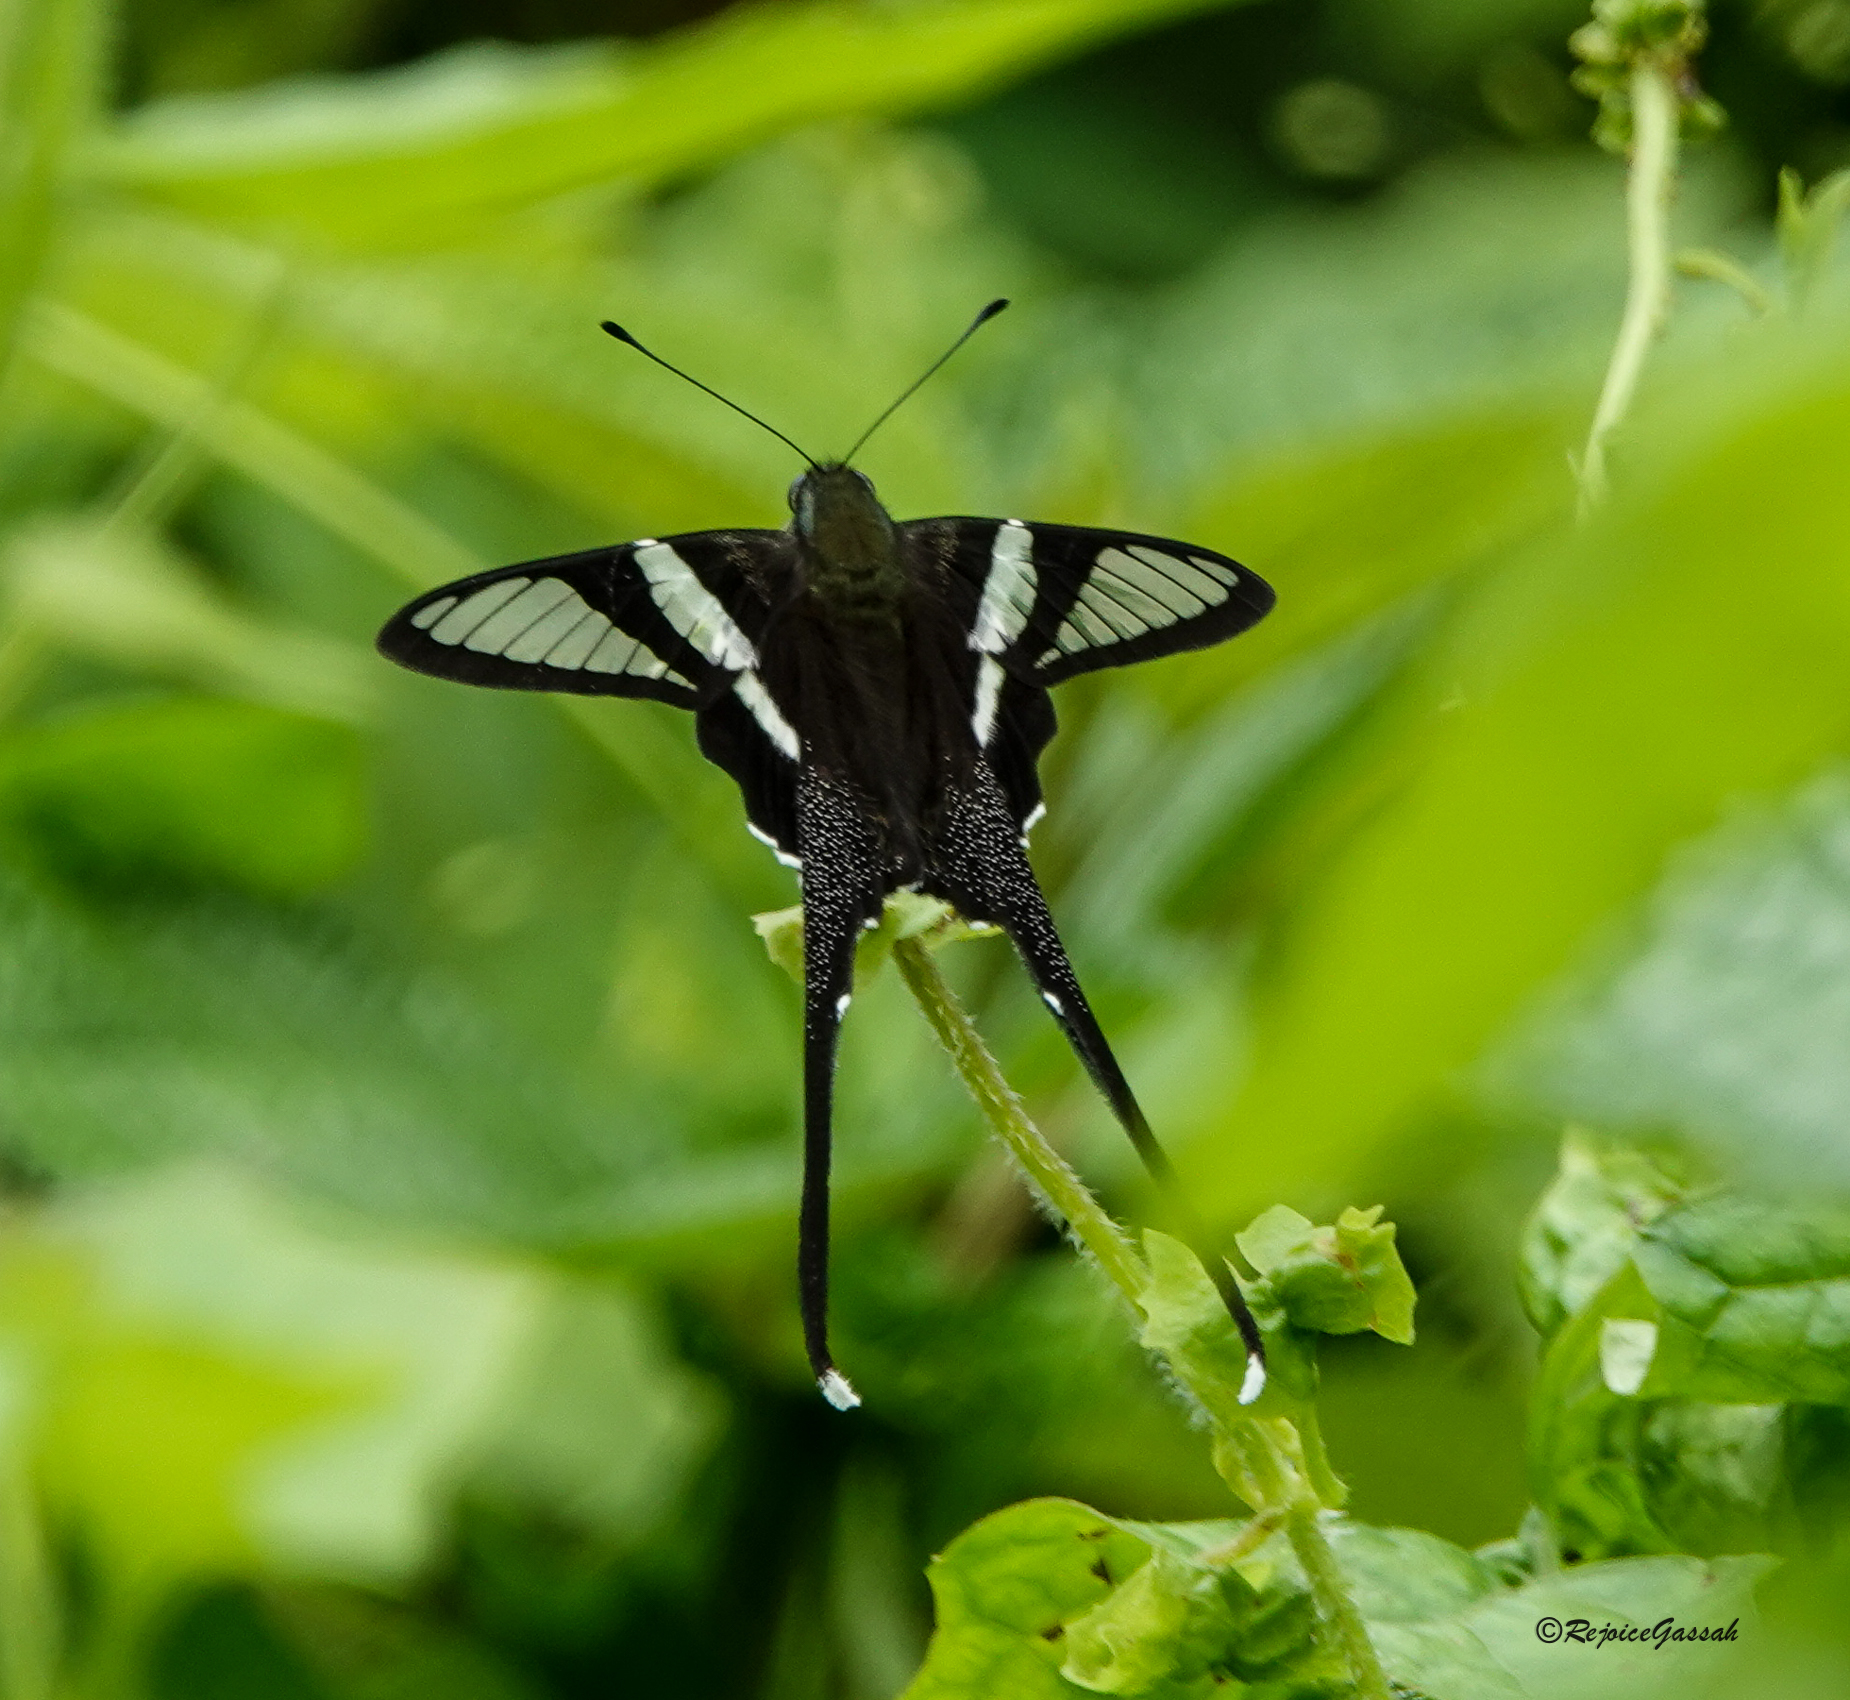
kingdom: Animalia
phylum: Arthropoda
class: Insecta
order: Lepidoptera
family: Papilionidae
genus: Lamproptera
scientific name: Lamproptera curius
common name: White dragontail
